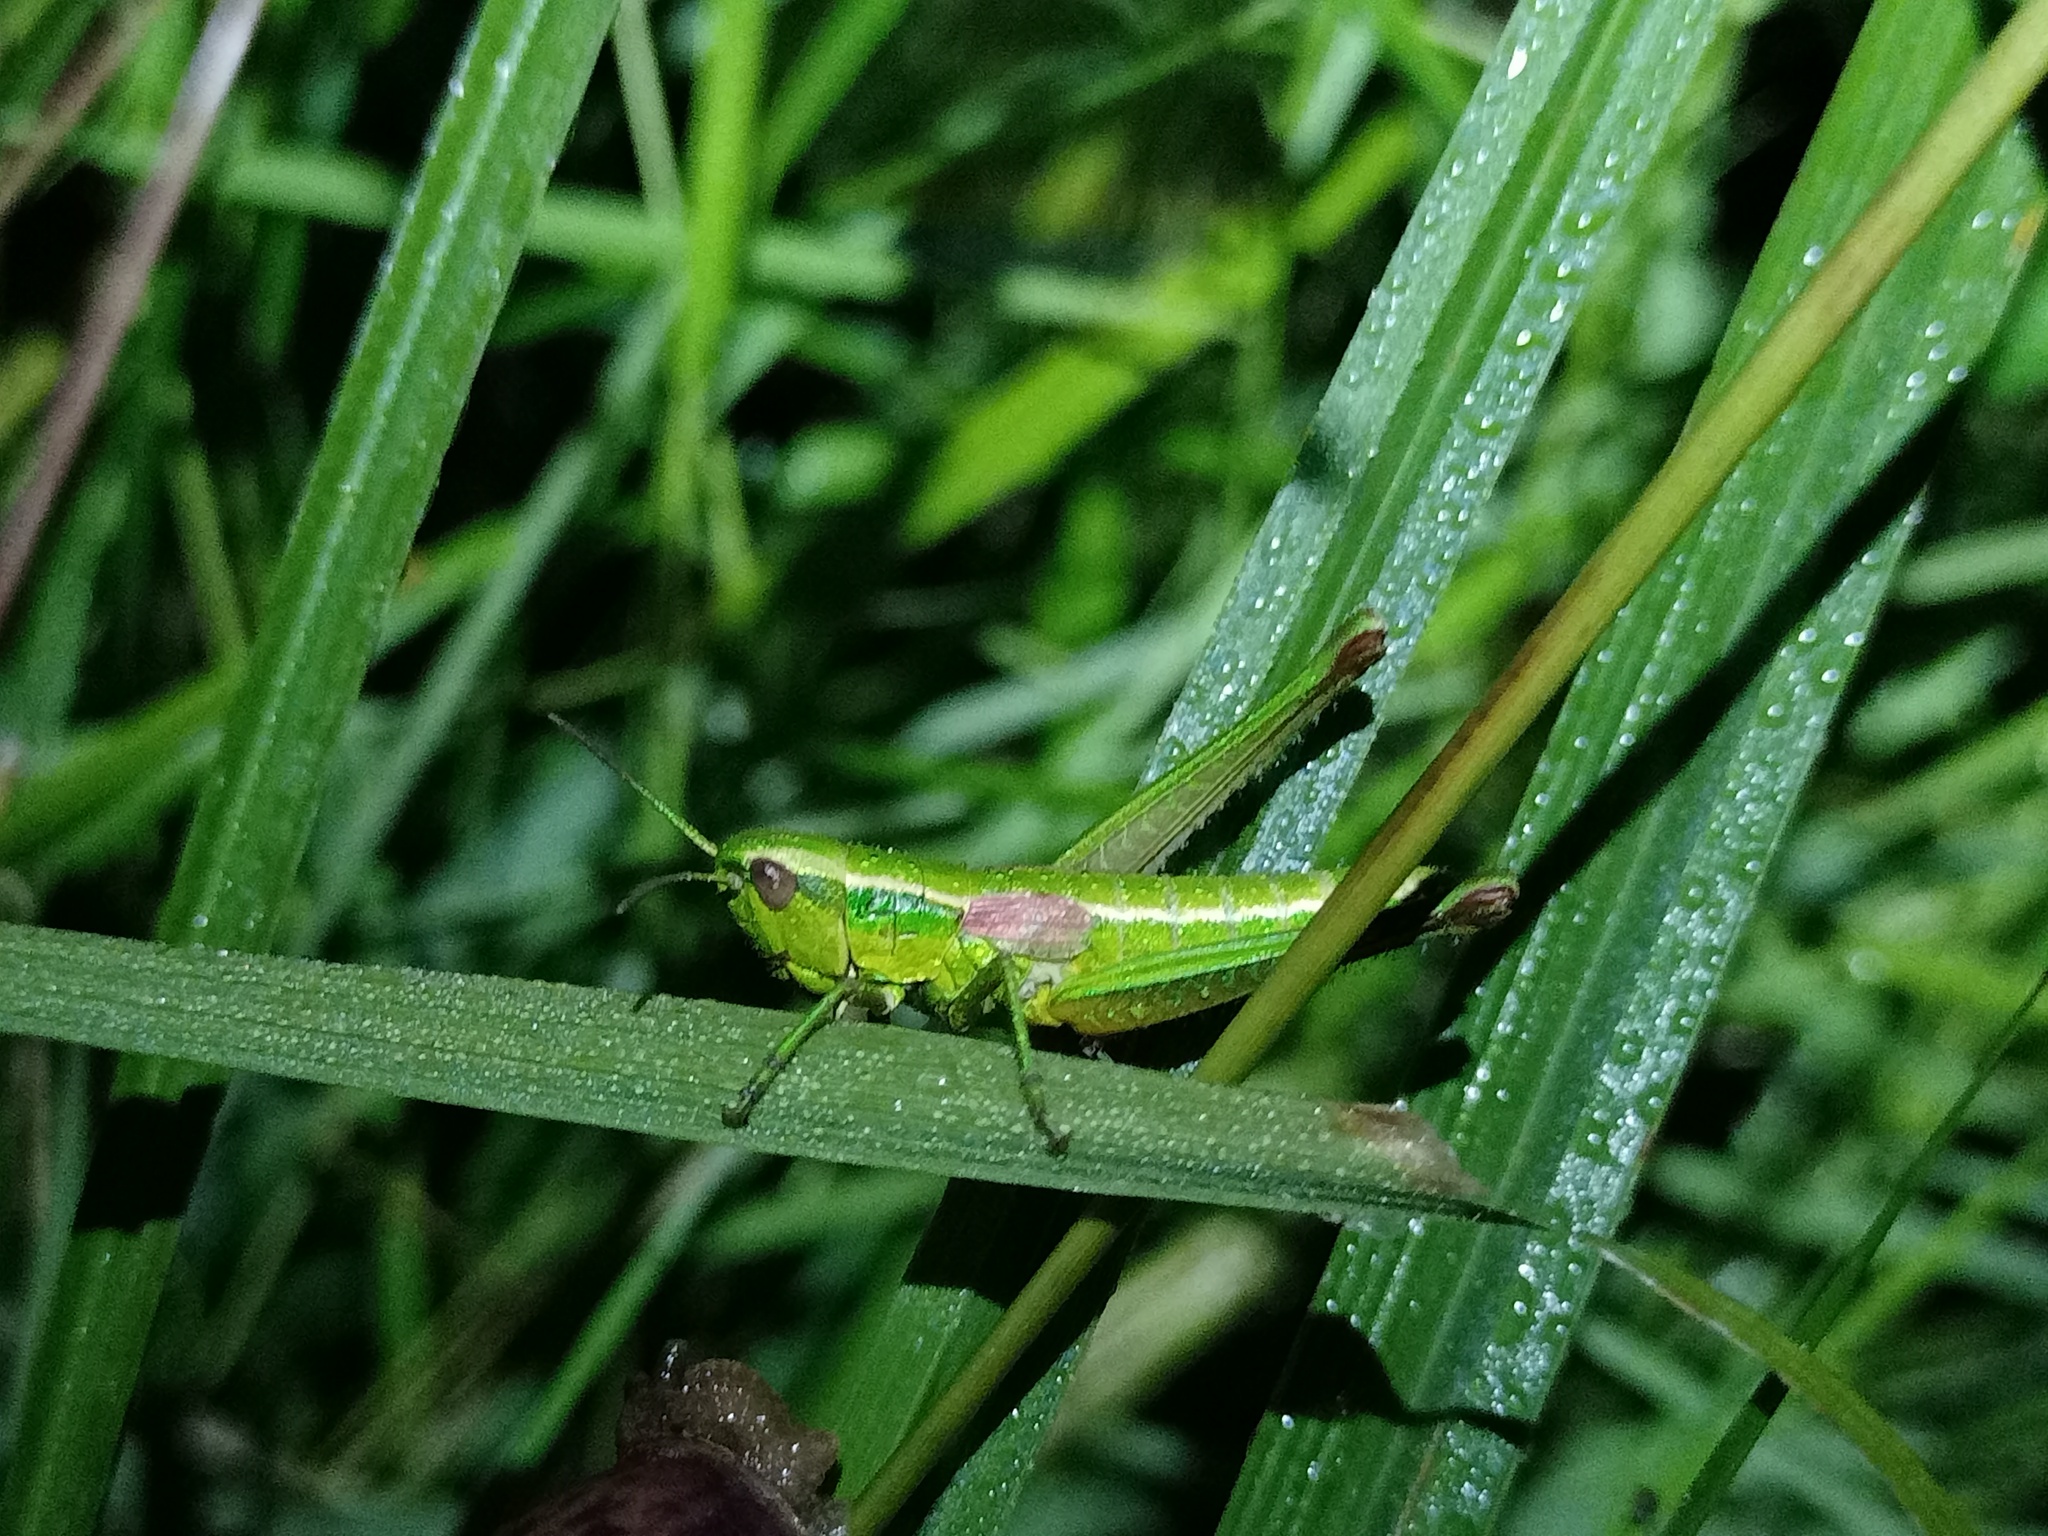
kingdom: Animalia
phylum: Arthropoda
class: Insecta
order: Orthoptera
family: Acrididae
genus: Euthystira
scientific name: Euthystira brachyptera
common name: Small gold grasshopper
